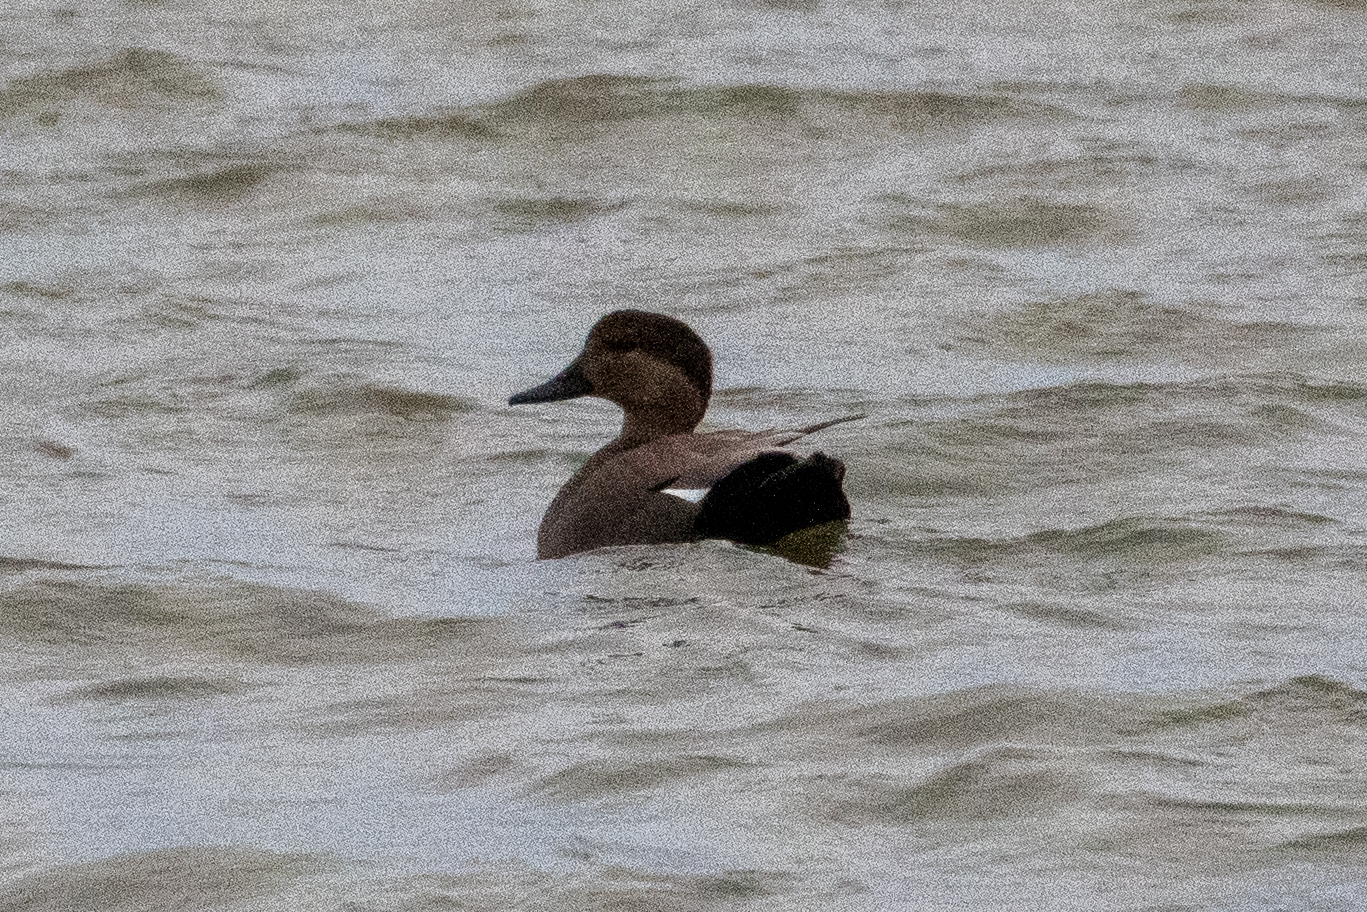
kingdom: Animalia
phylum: Chordata
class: Aves
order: Anseriformes
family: Anatidae
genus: Mareca
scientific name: Mareca strepera
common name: Gadwall
